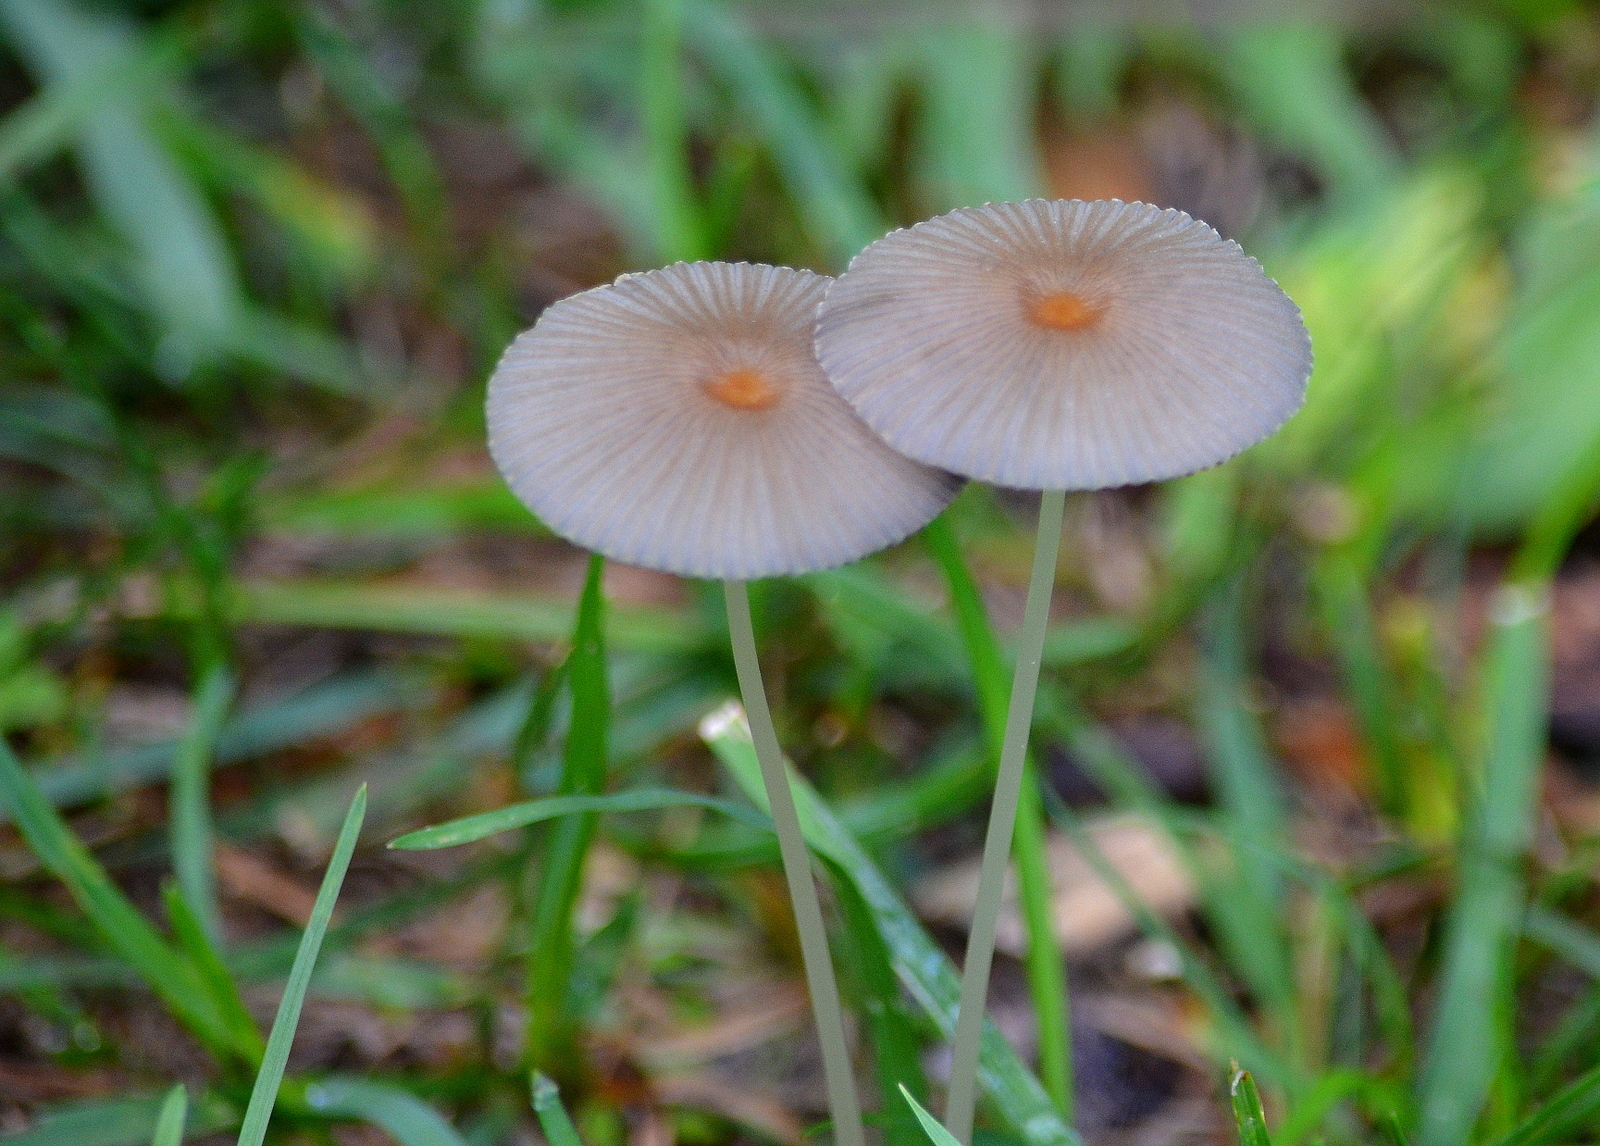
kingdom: Fungi
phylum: Basidiomycota
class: Agaricomycetes
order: Agaricales
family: Psathyrellaceae
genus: Parasola
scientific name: Parasola plicatilis
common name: Pleated inkcap
